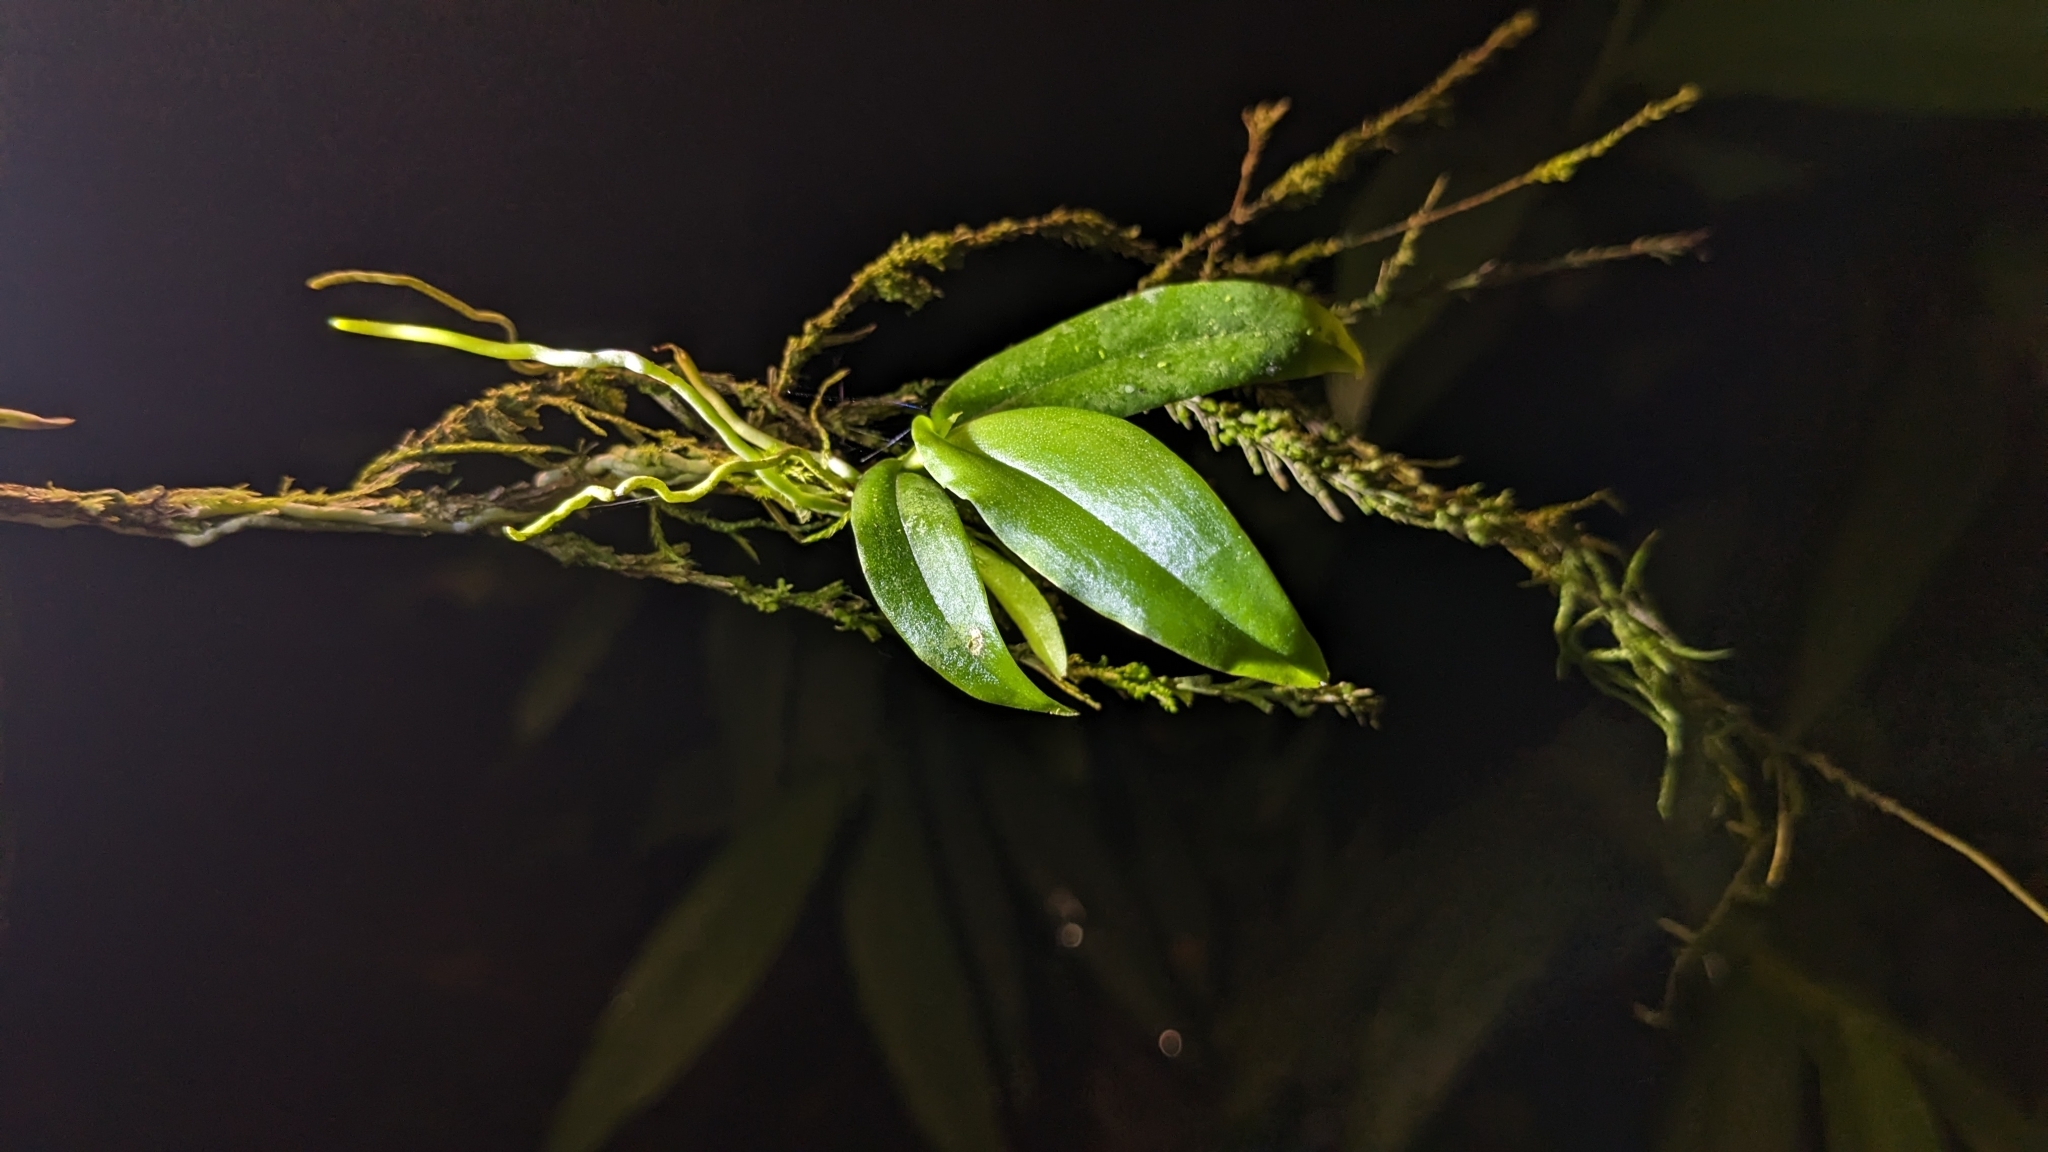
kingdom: Plantae
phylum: Tracheophyta
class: Liliopsida
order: Asparagales
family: Orchidaceae
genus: Diploprora
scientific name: Diploprora championii
